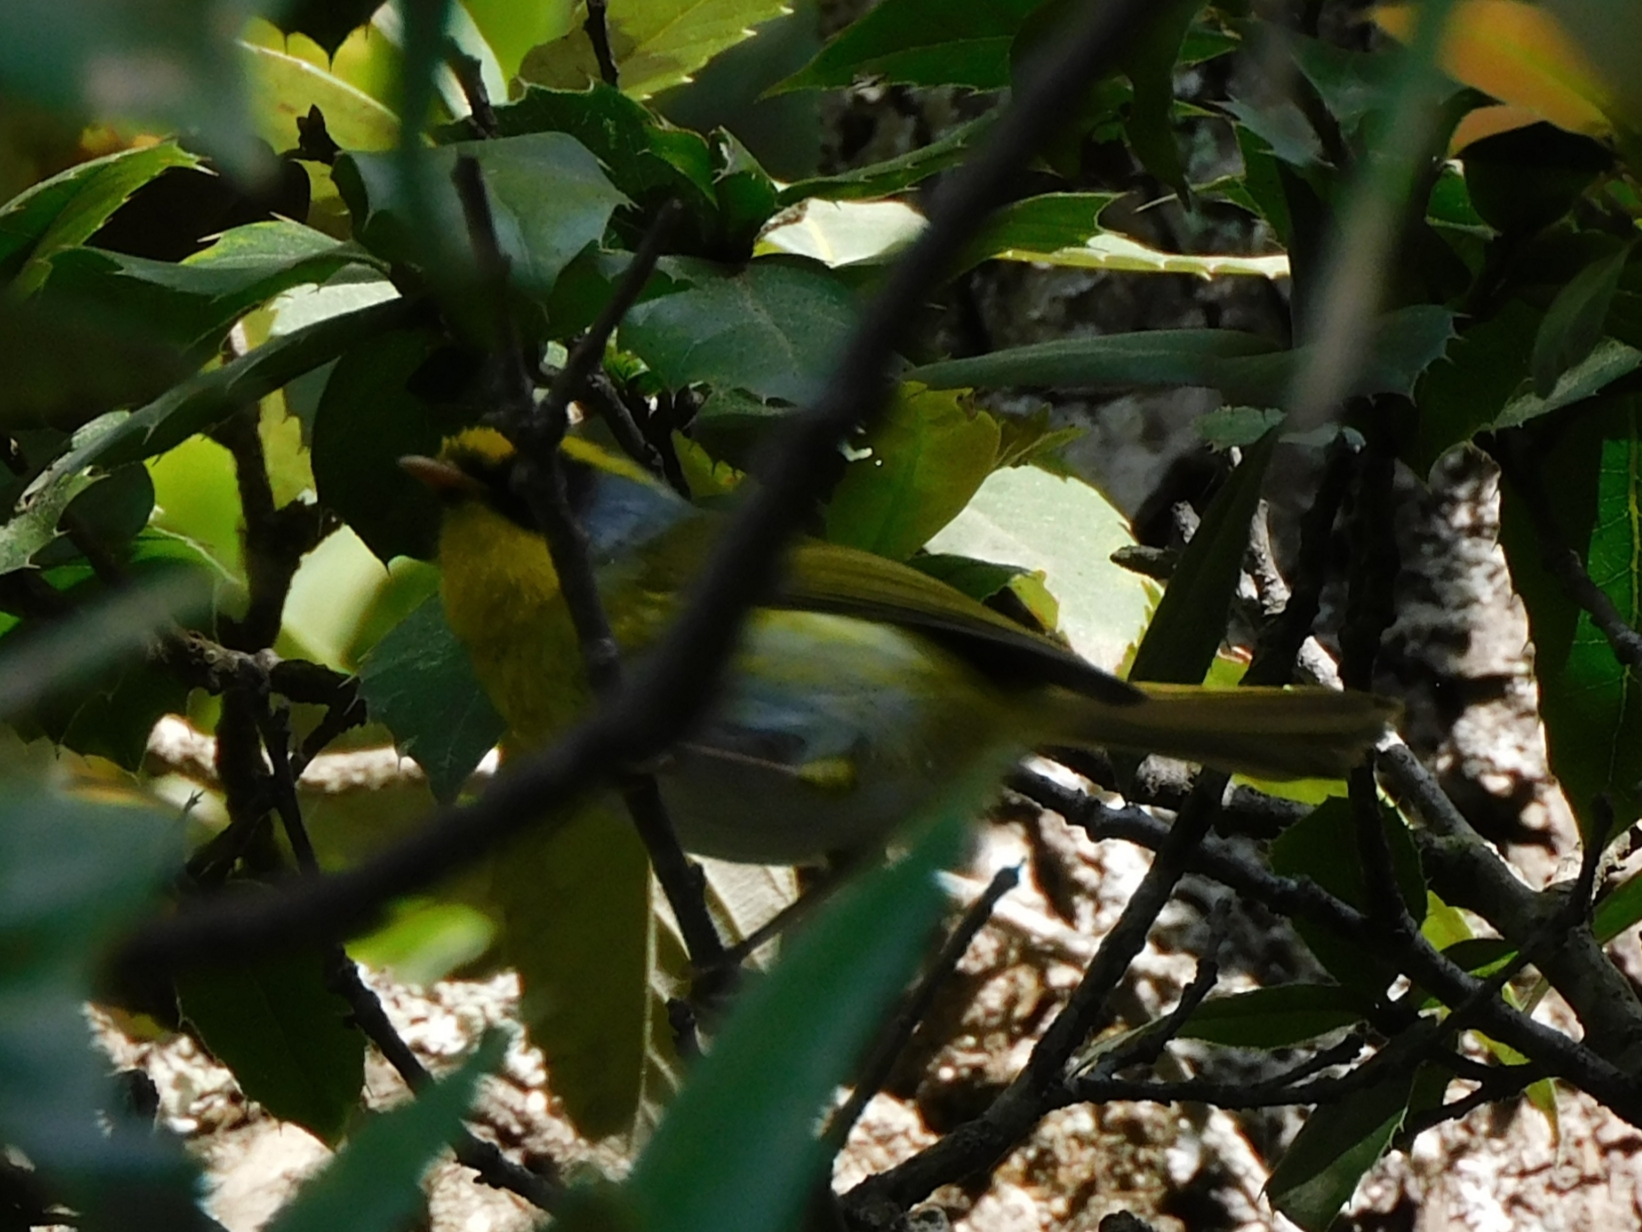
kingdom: Animalia
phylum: Chordata
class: Aves
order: Passeriformes
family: Cettiidae
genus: Abroscopus
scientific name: Abroscopus schisticeps
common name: Black-faced warbler
